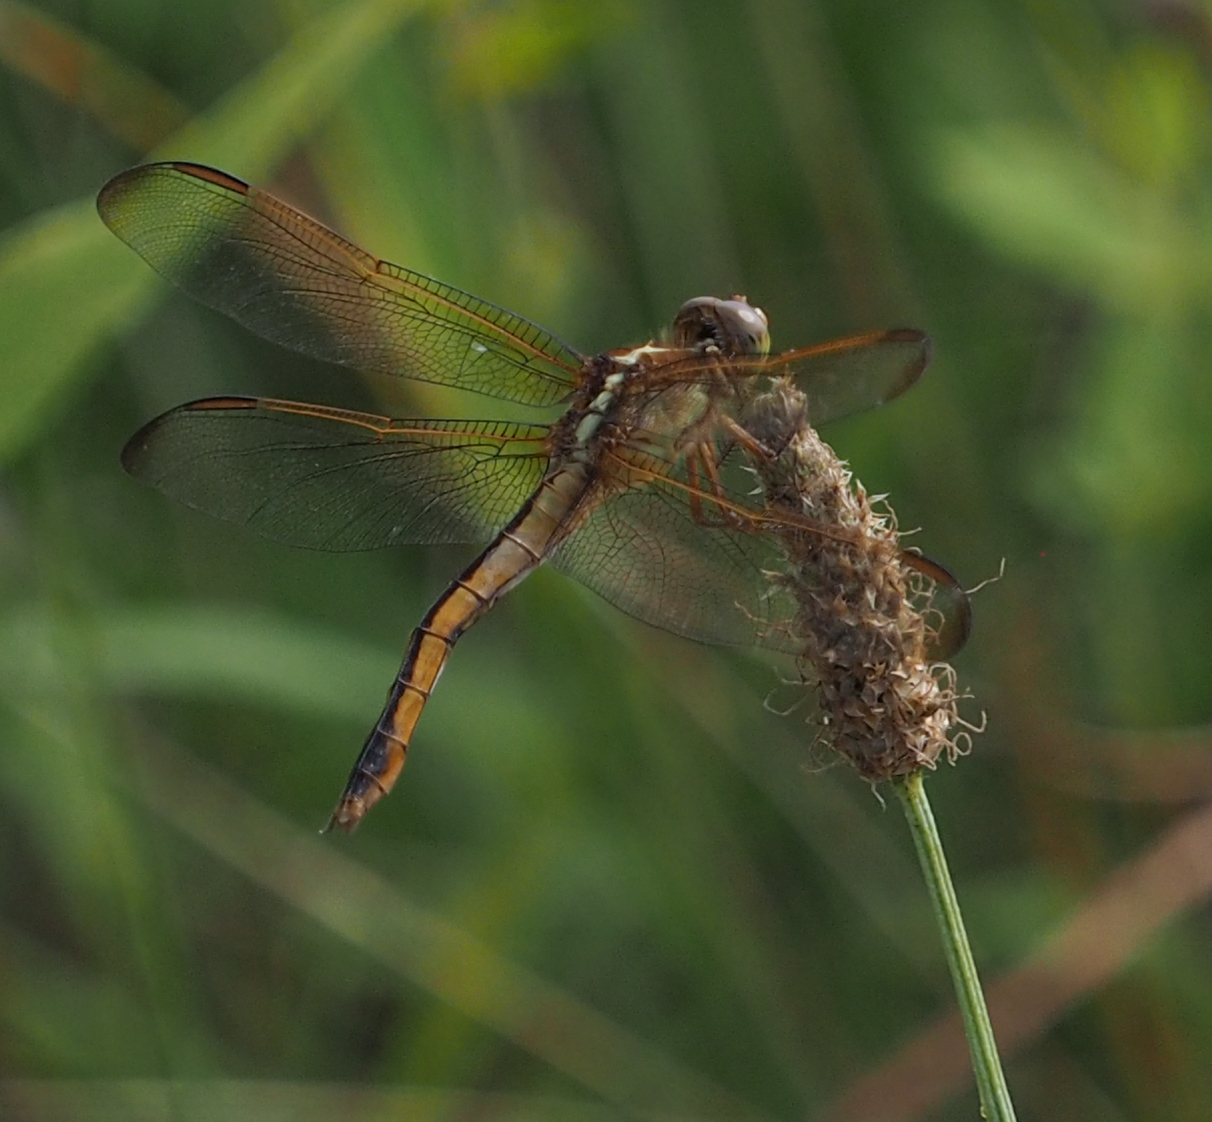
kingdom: Animalia
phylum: Arthropoda
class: Insecta
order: Odonata
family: Libellulidae
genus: Libellula
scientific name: Libellula needhami
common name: Needham's skimmer
